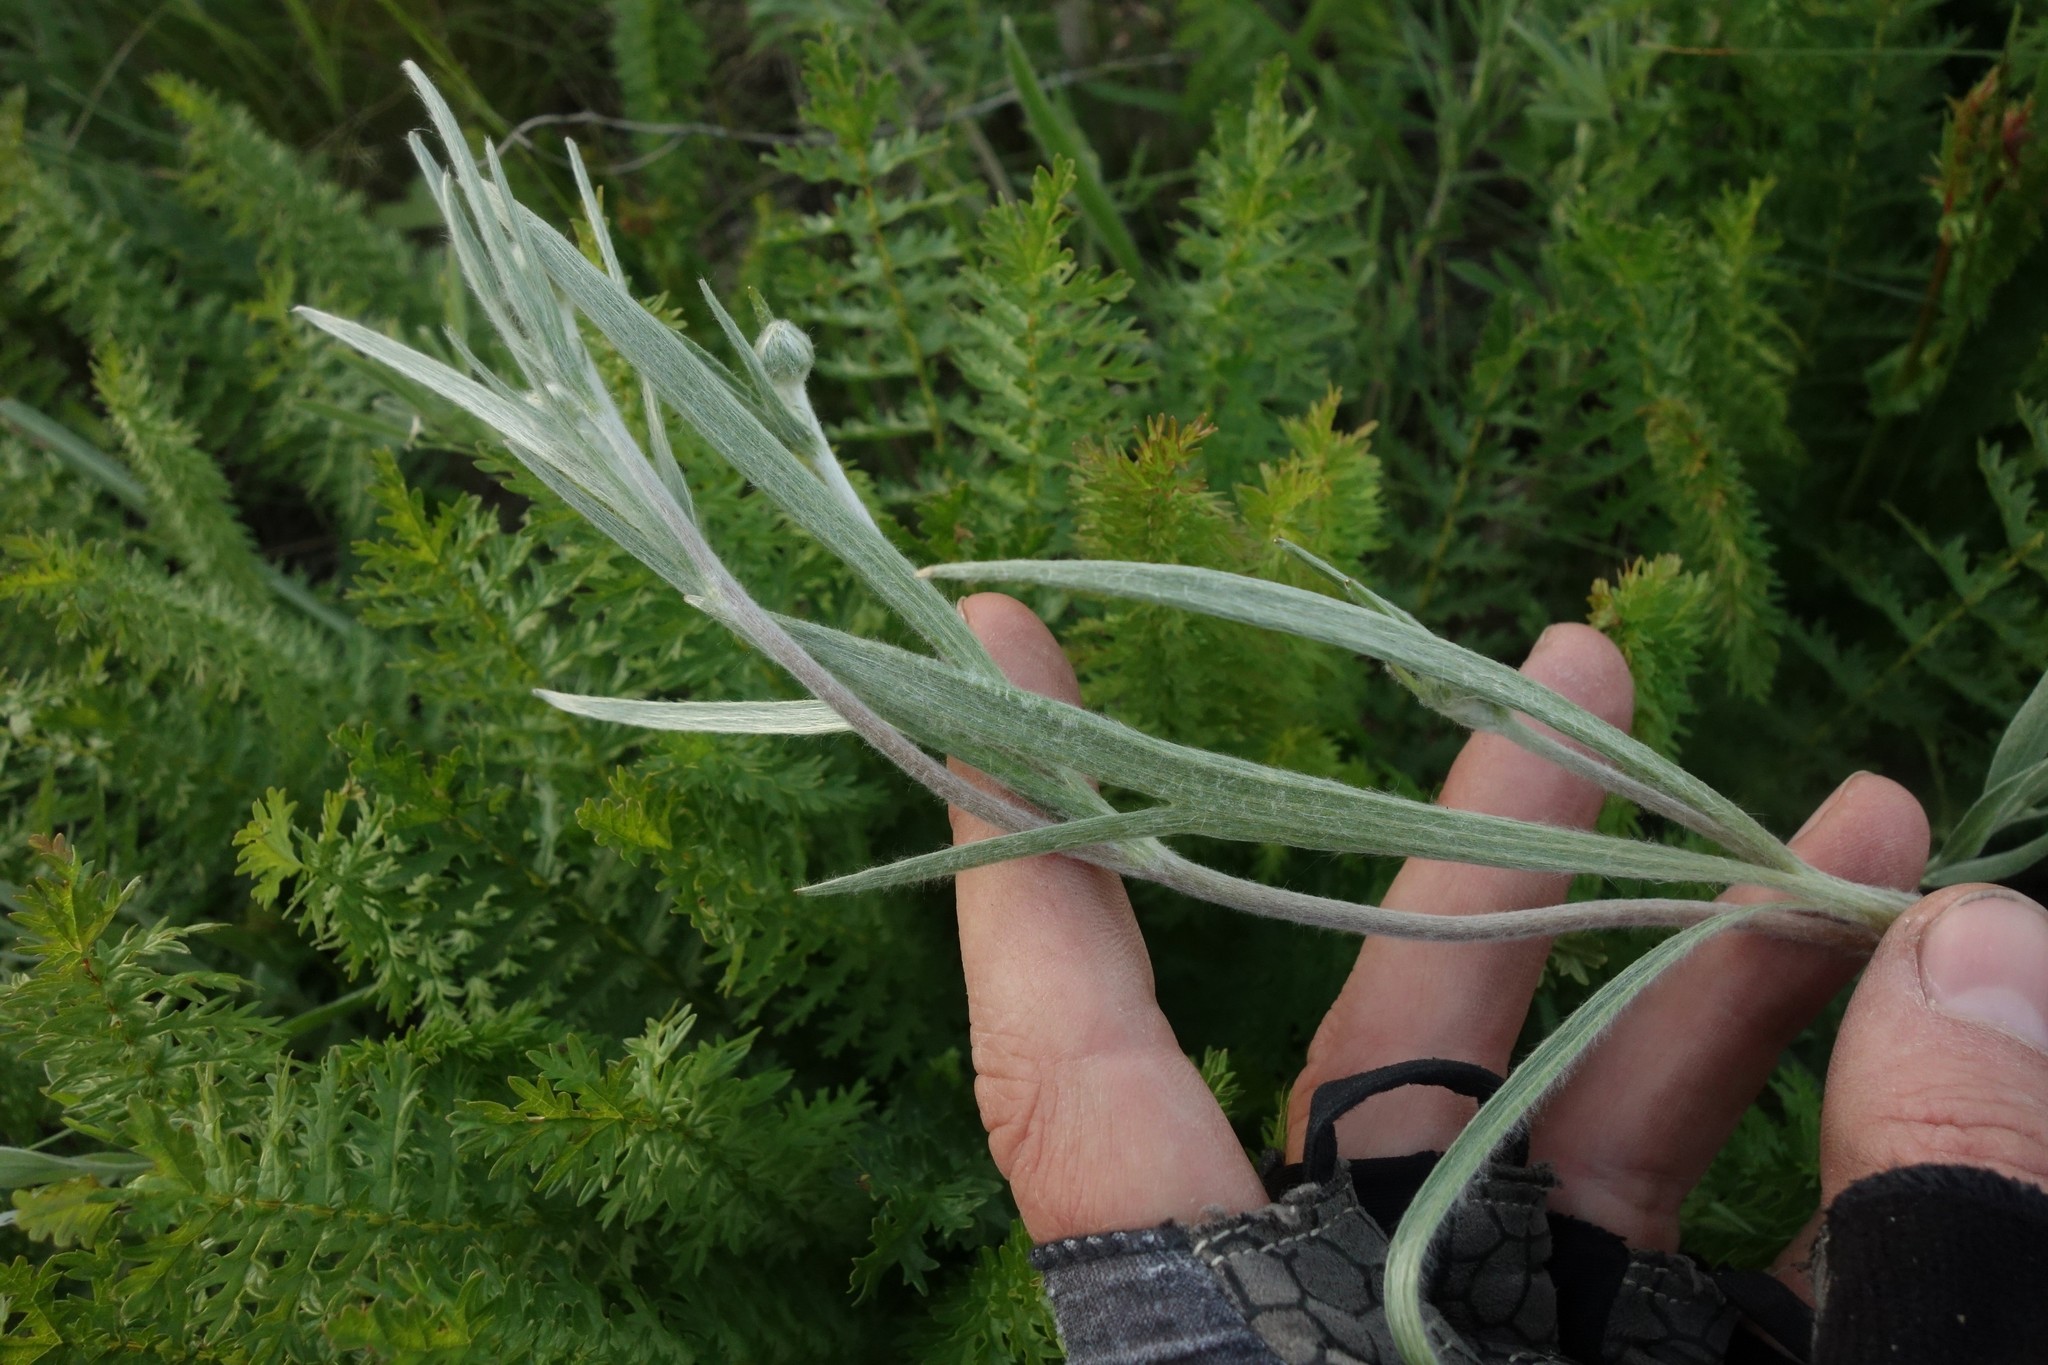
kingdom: Plantae
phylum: Tracheophyta
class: Magnoliopsida
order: Ranunculales
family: Ranunculaceae
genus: Ranunculus
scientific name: Ranunculus illyricus
